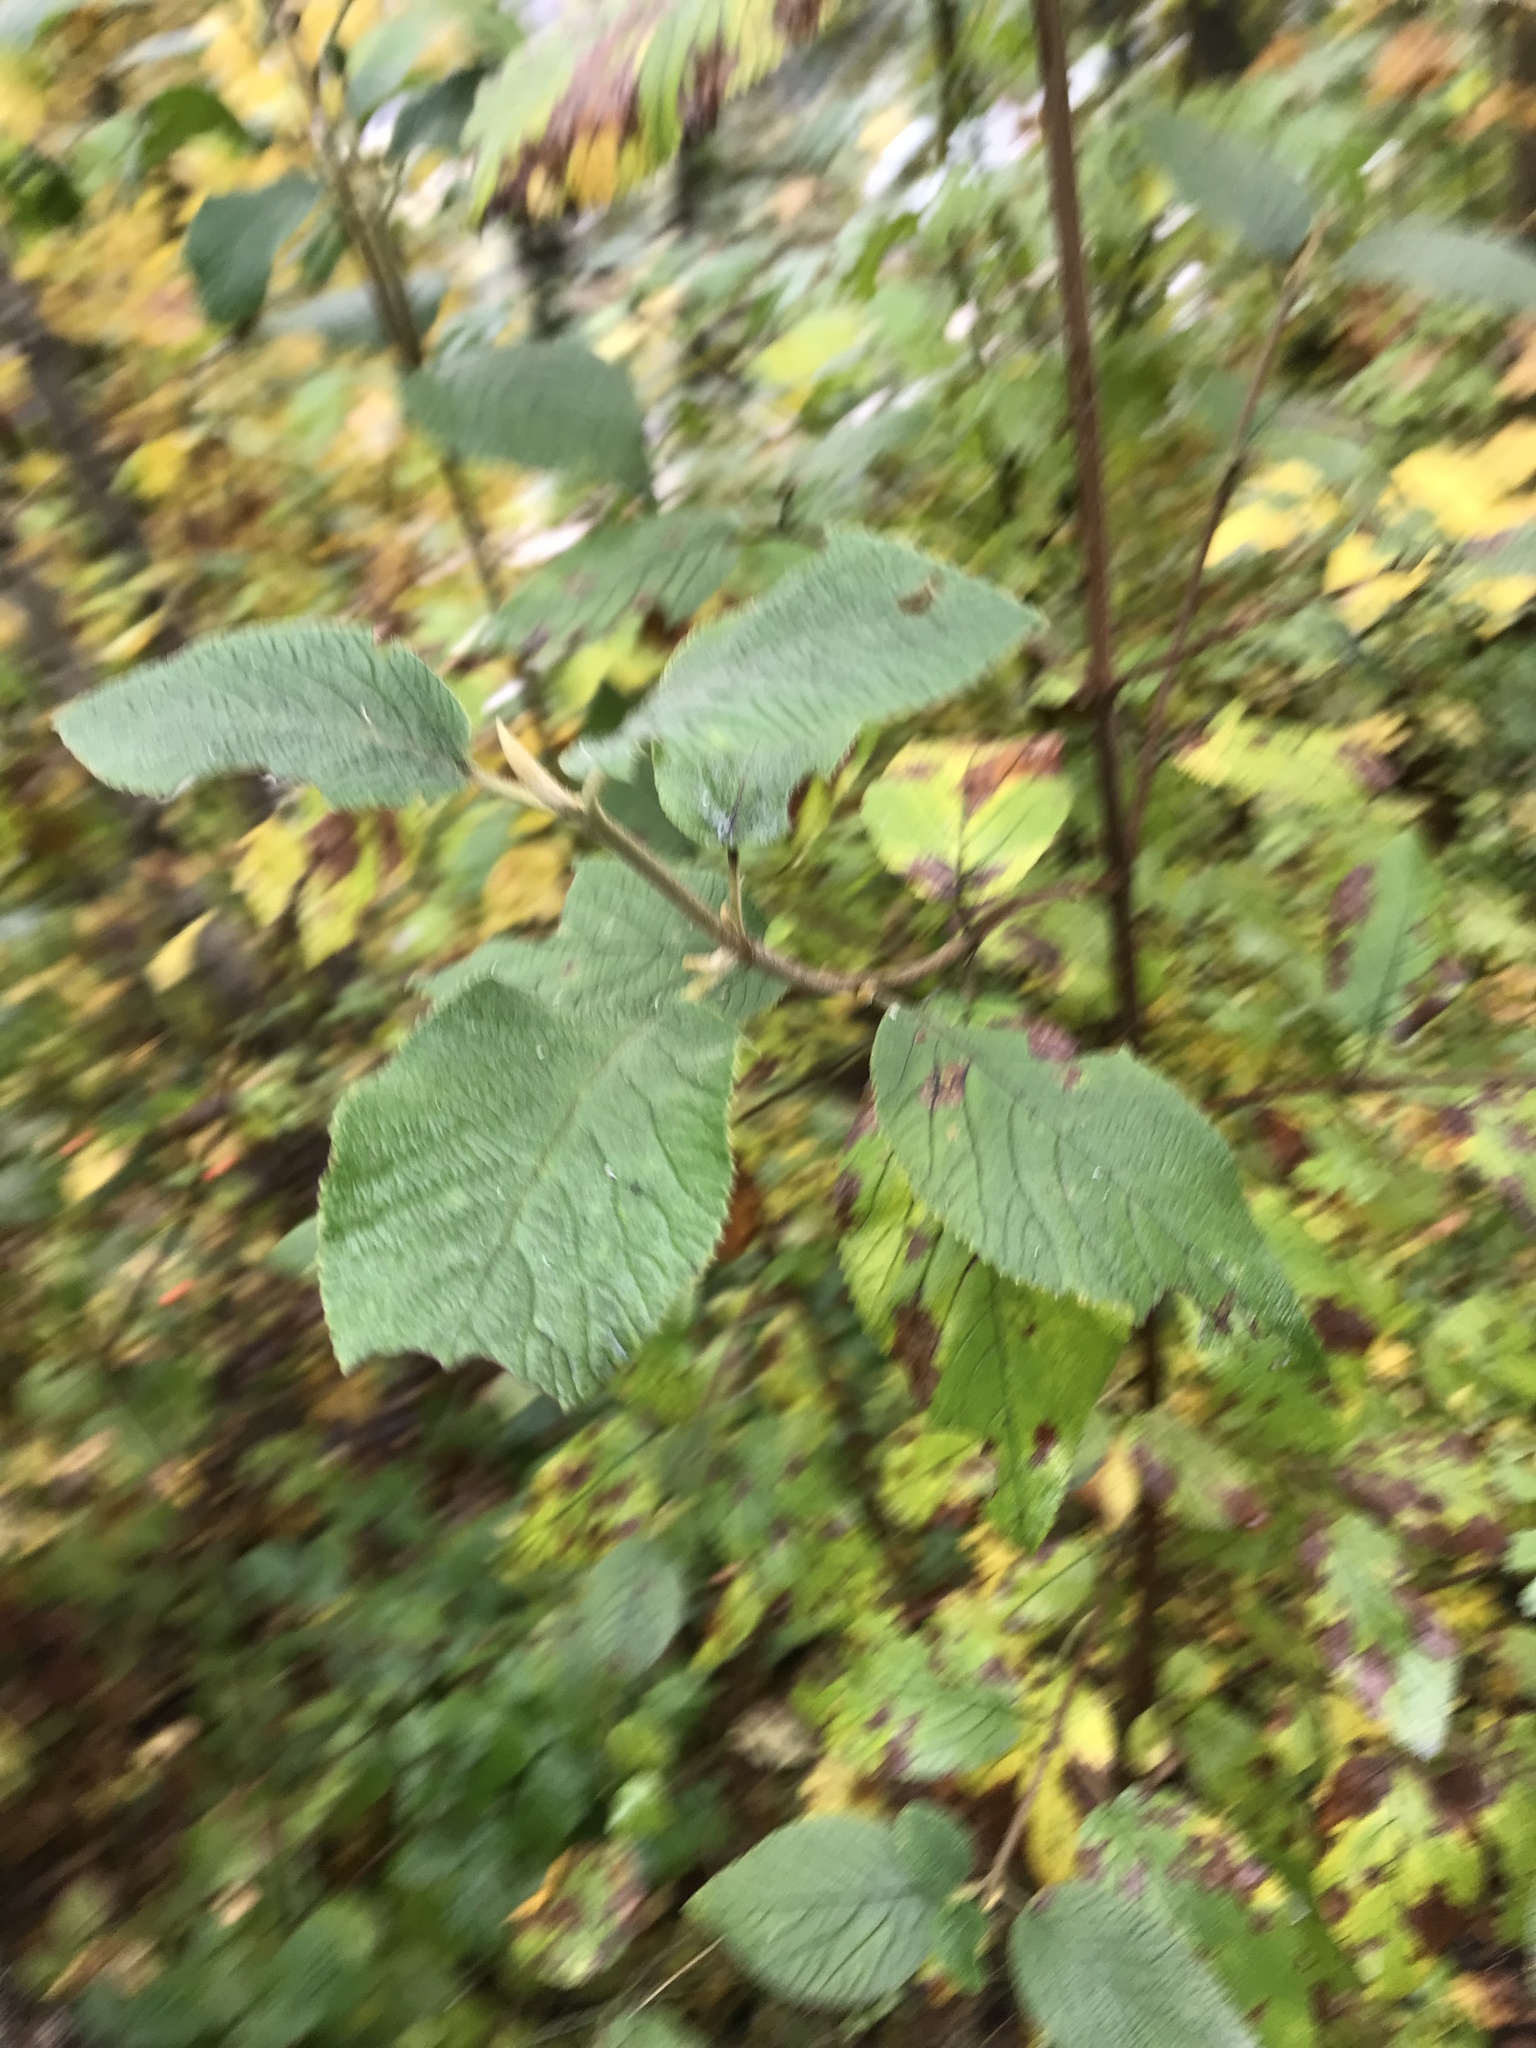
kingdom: Plantae
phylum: Tracheophyta
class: Magnoliopsida
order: Dipsacales
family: Viburnaceae
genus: Viburnum
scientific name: Viburnum lantana
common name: Wayfaring tree
